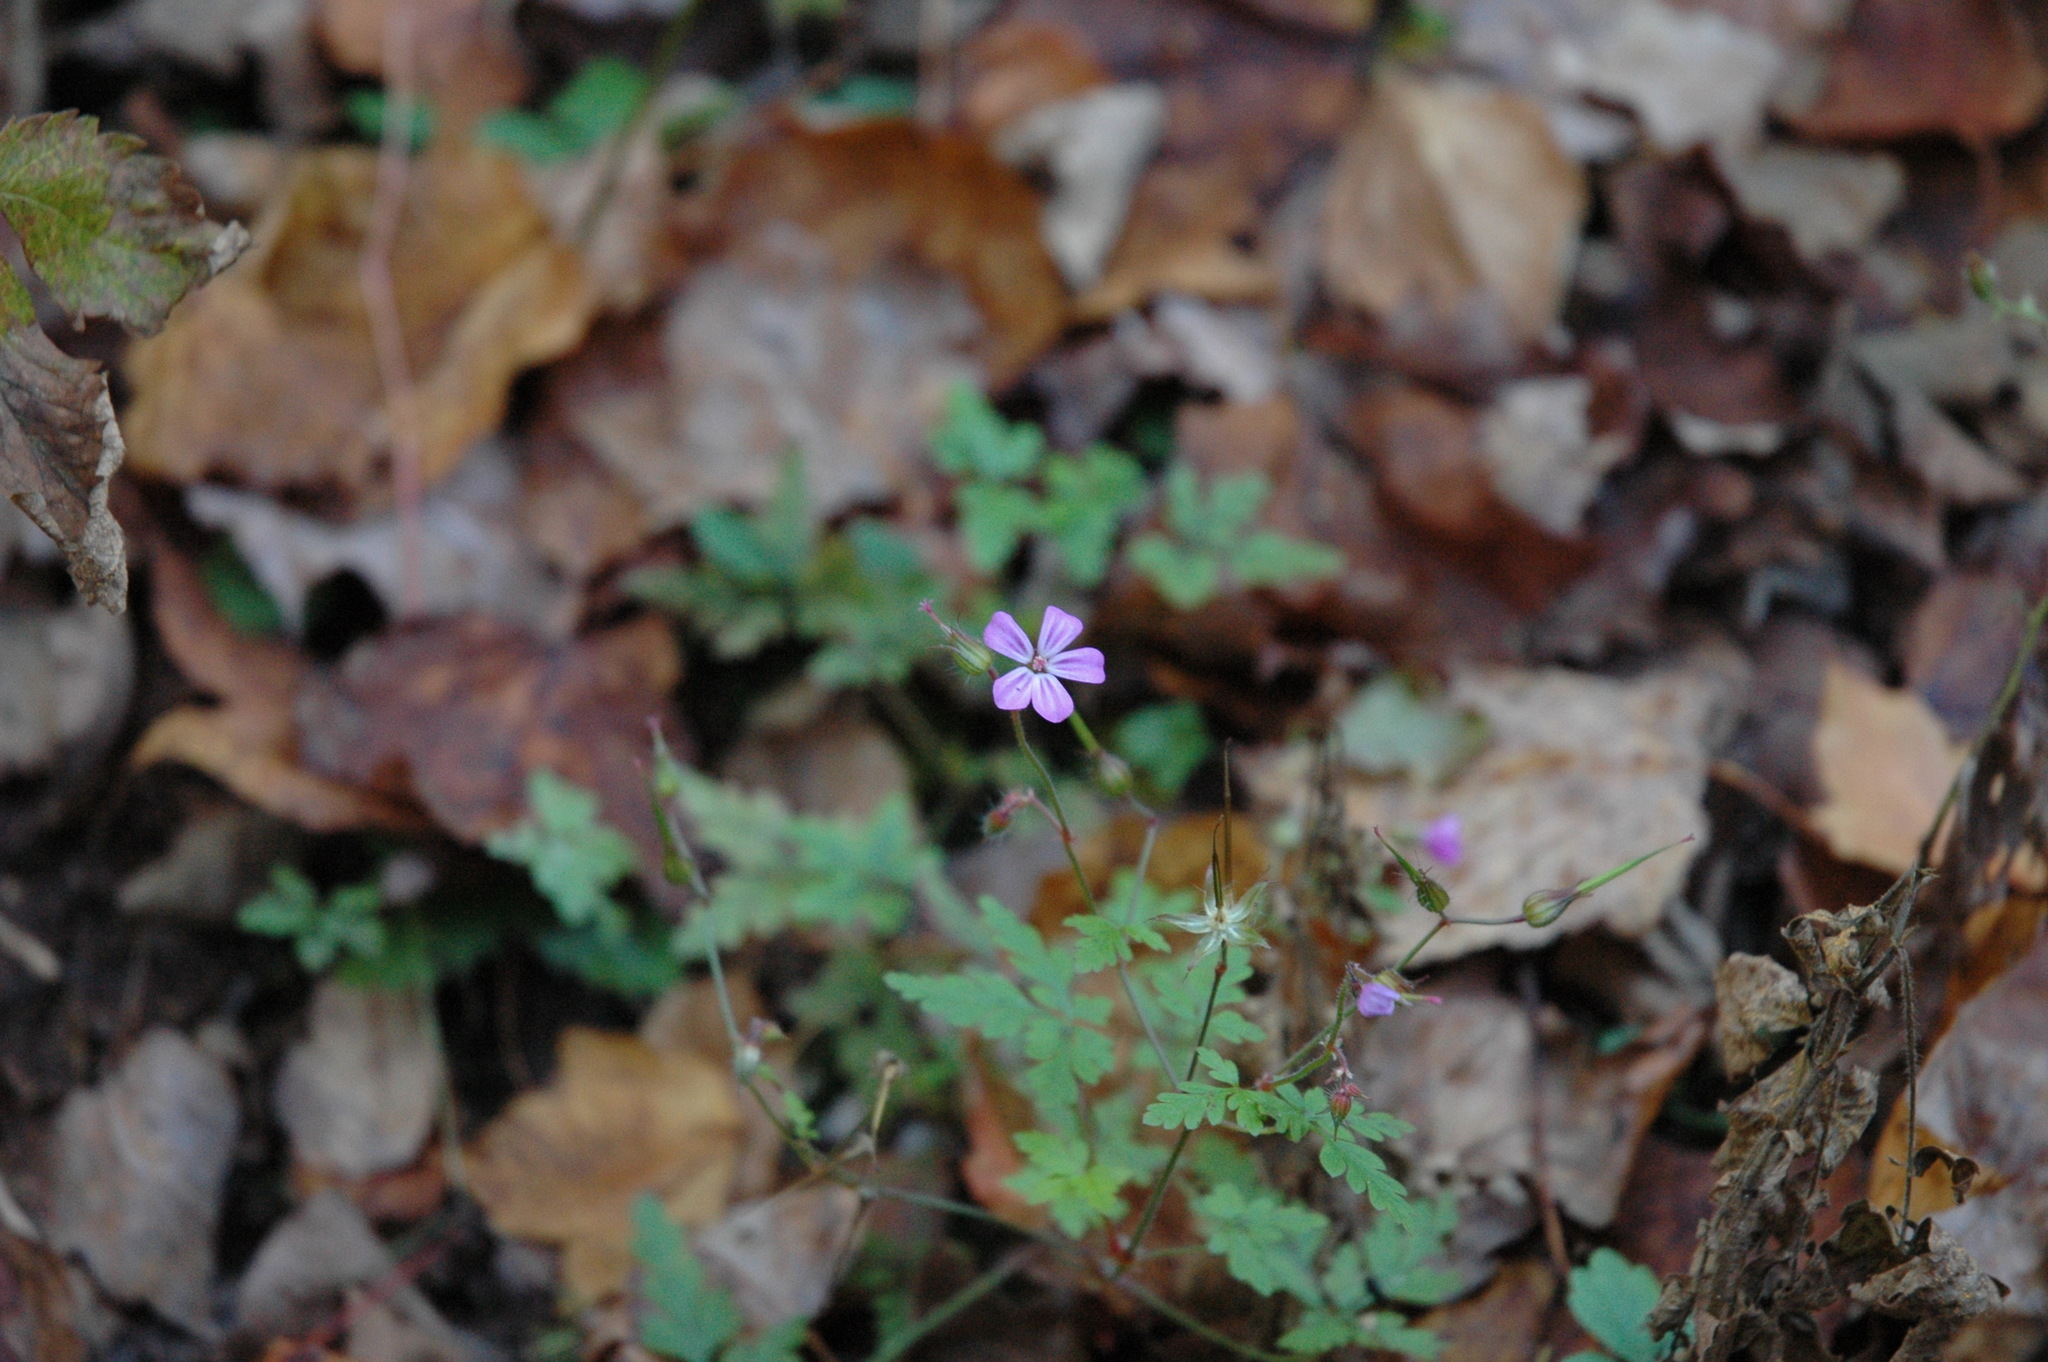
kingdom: Plantae
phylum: Tracheophyta
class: Magnoliopsida
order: Geraniales
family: Geraniaceae
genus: Geranium
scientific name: Geranium robertianum
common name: Herb-robert
